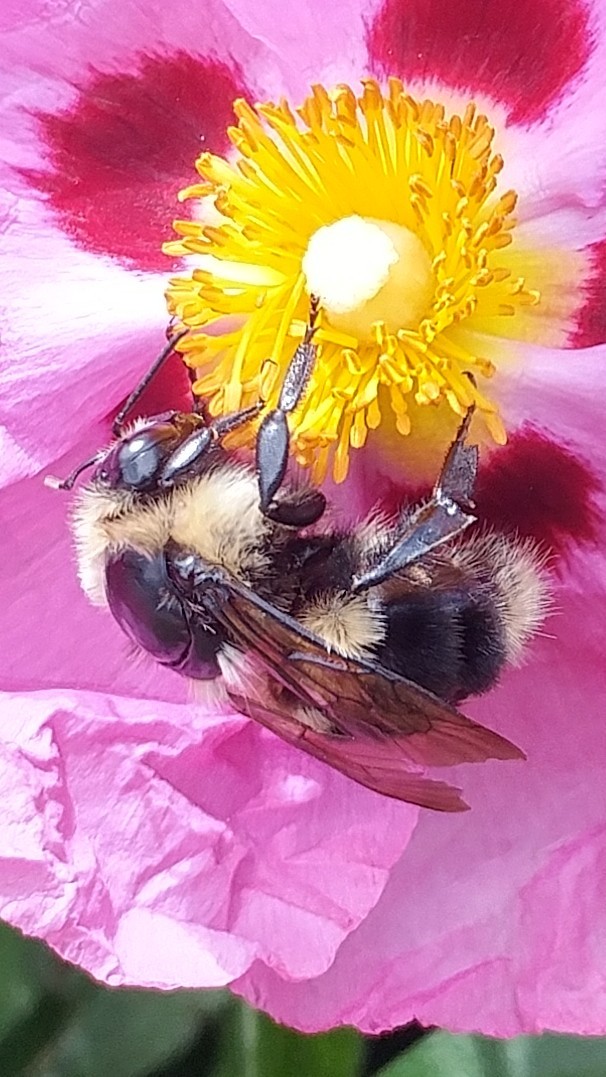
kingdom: Animalia
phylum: Arthropoda
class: Insecta
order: Hymenoptera
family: Apidae
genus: Bombus
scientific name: Bombus melanopygus
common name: Black tail bumble bee
